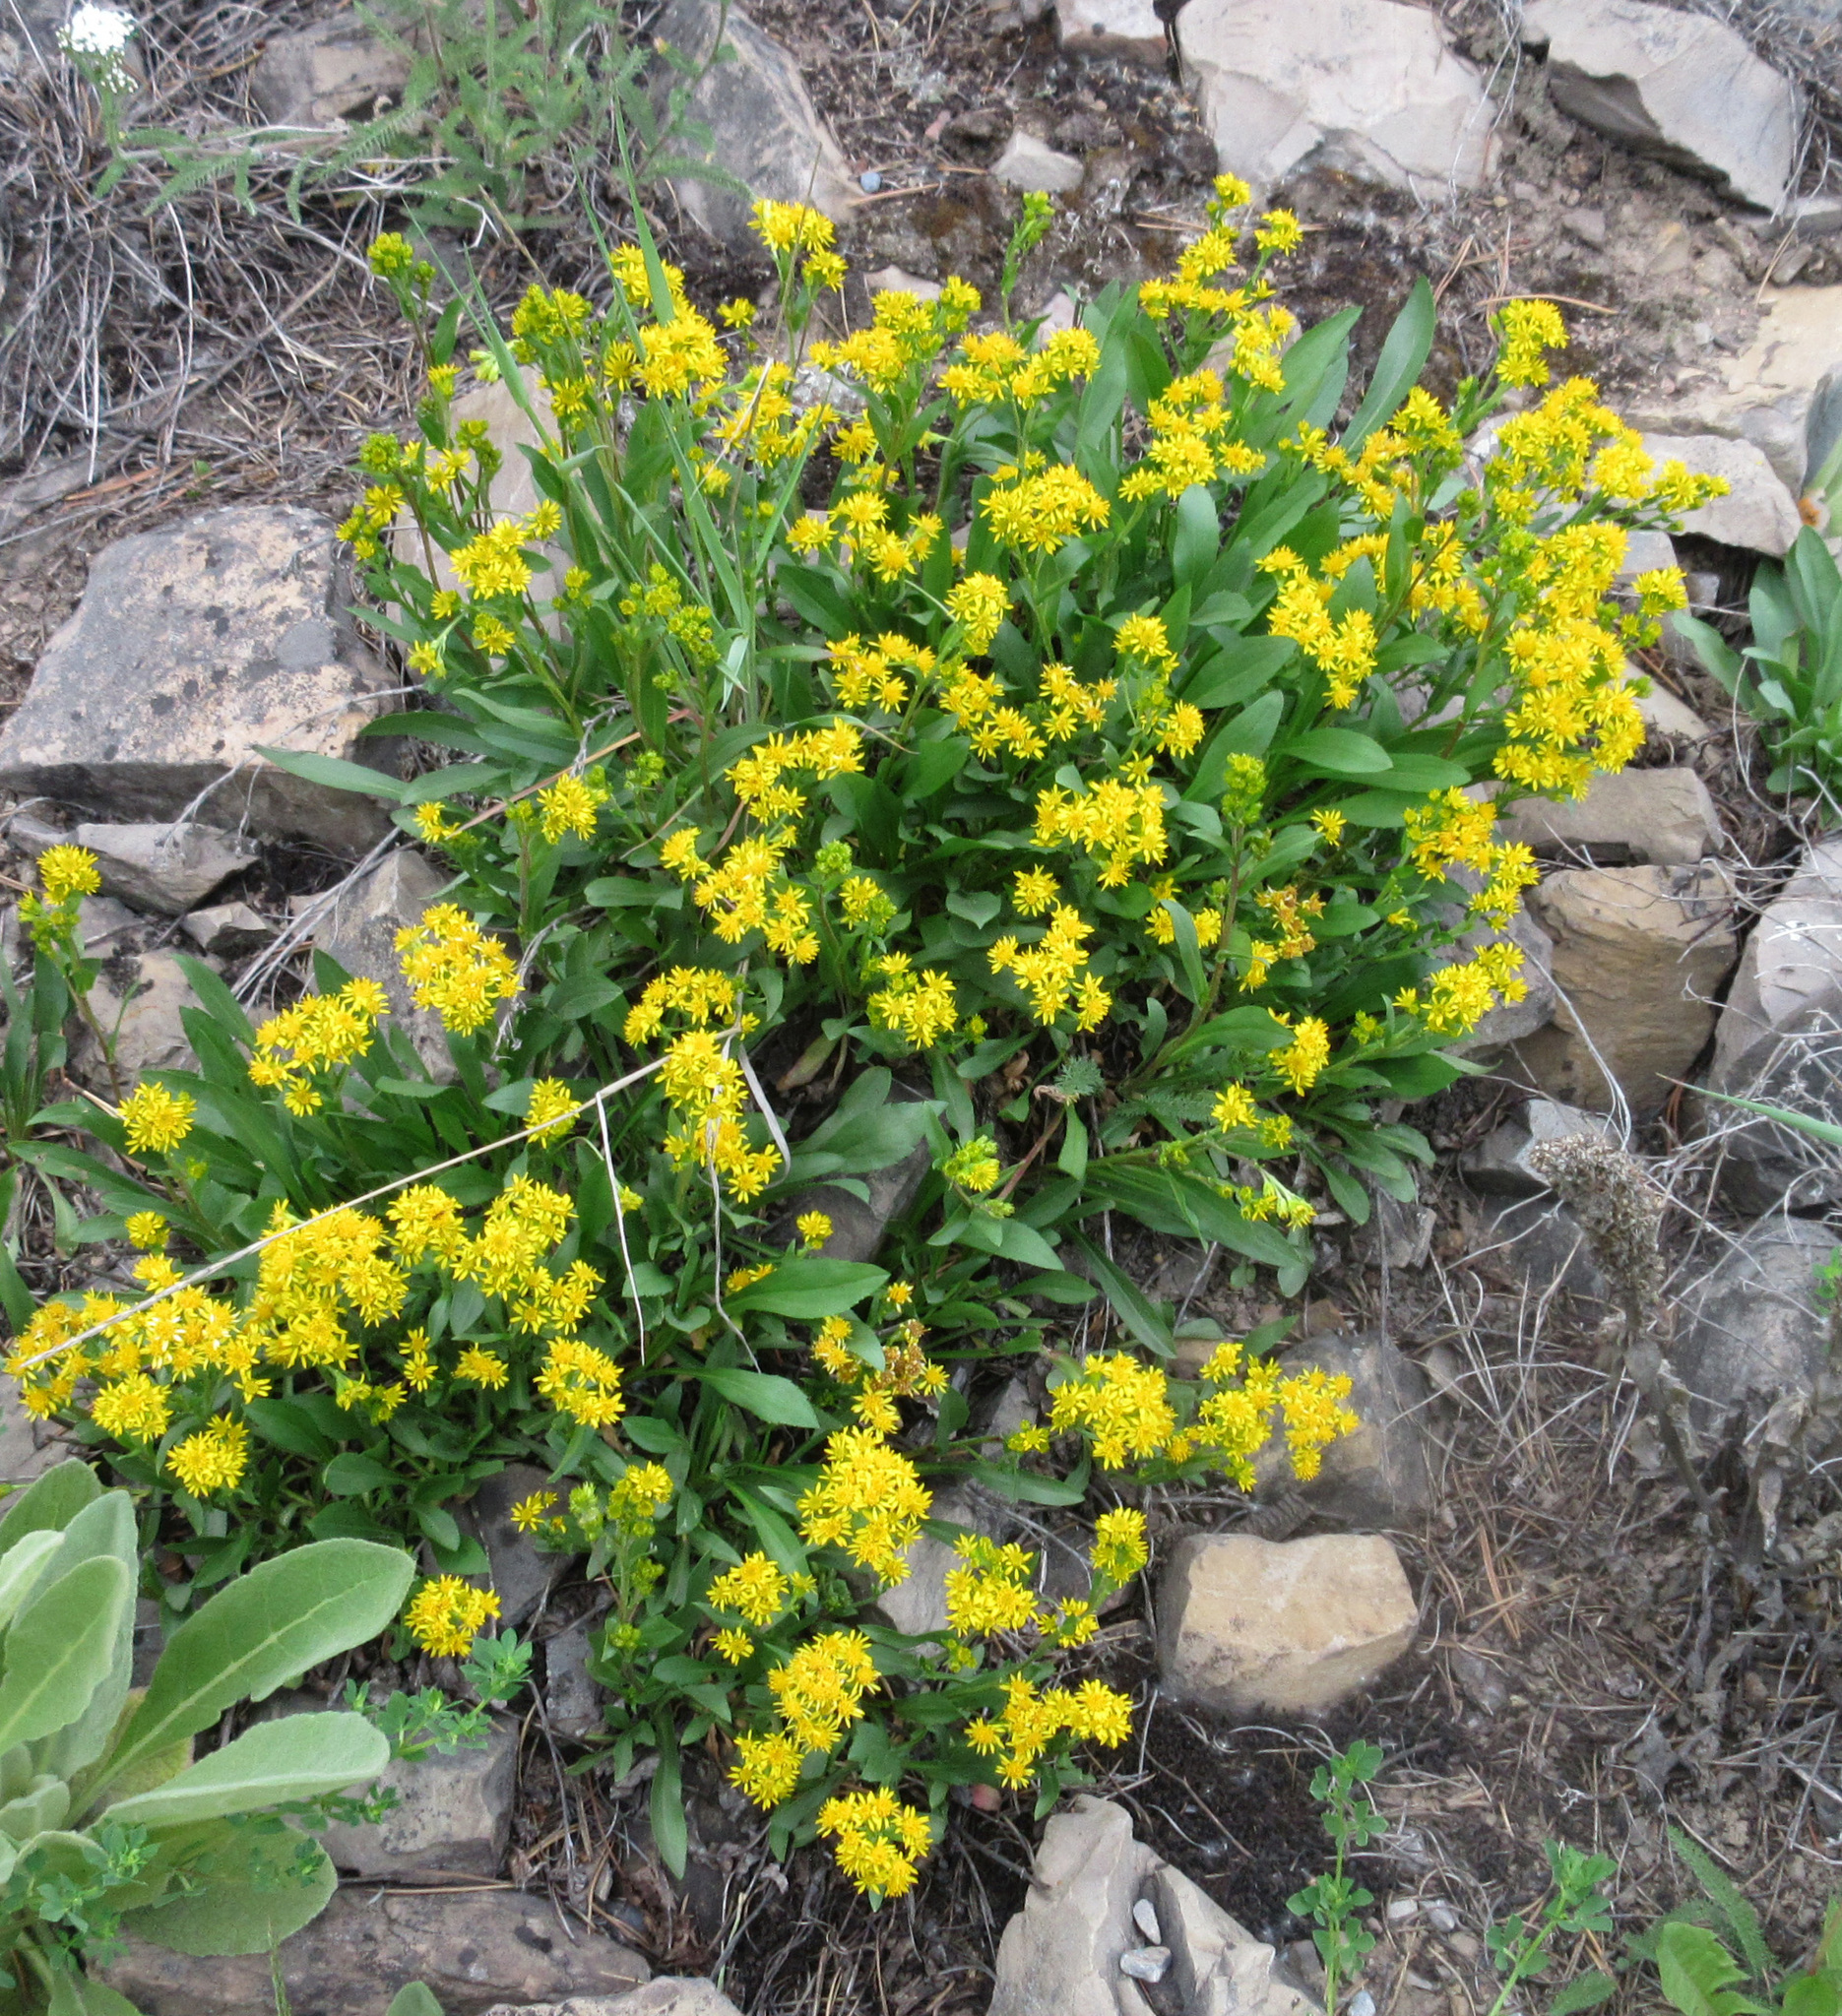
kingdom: Plantae
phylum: Tracheophyta
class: Magnoliopsida
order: Asterales
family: Asteraceae
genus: Solidago
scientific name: Solidago multiradiata
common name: Northern goldenrod
